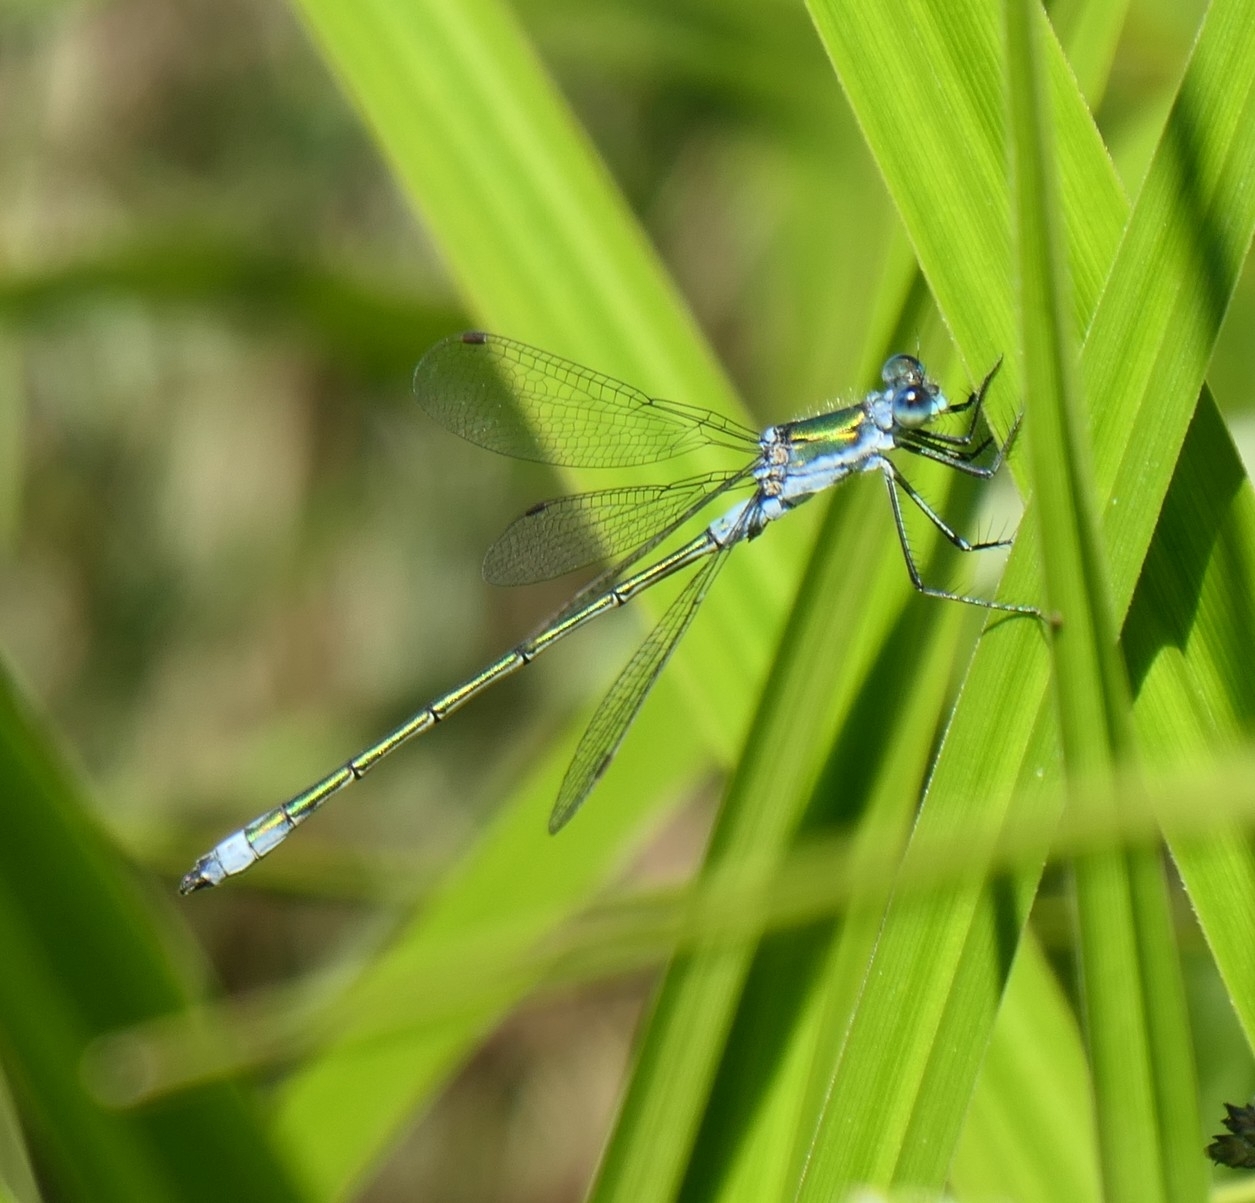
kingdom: Animalia
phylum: Arthropoda
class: Insecta
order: Odonata
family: Lestidae
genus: Lestes
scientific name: Lestes sponsa
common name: Common spreadwing
